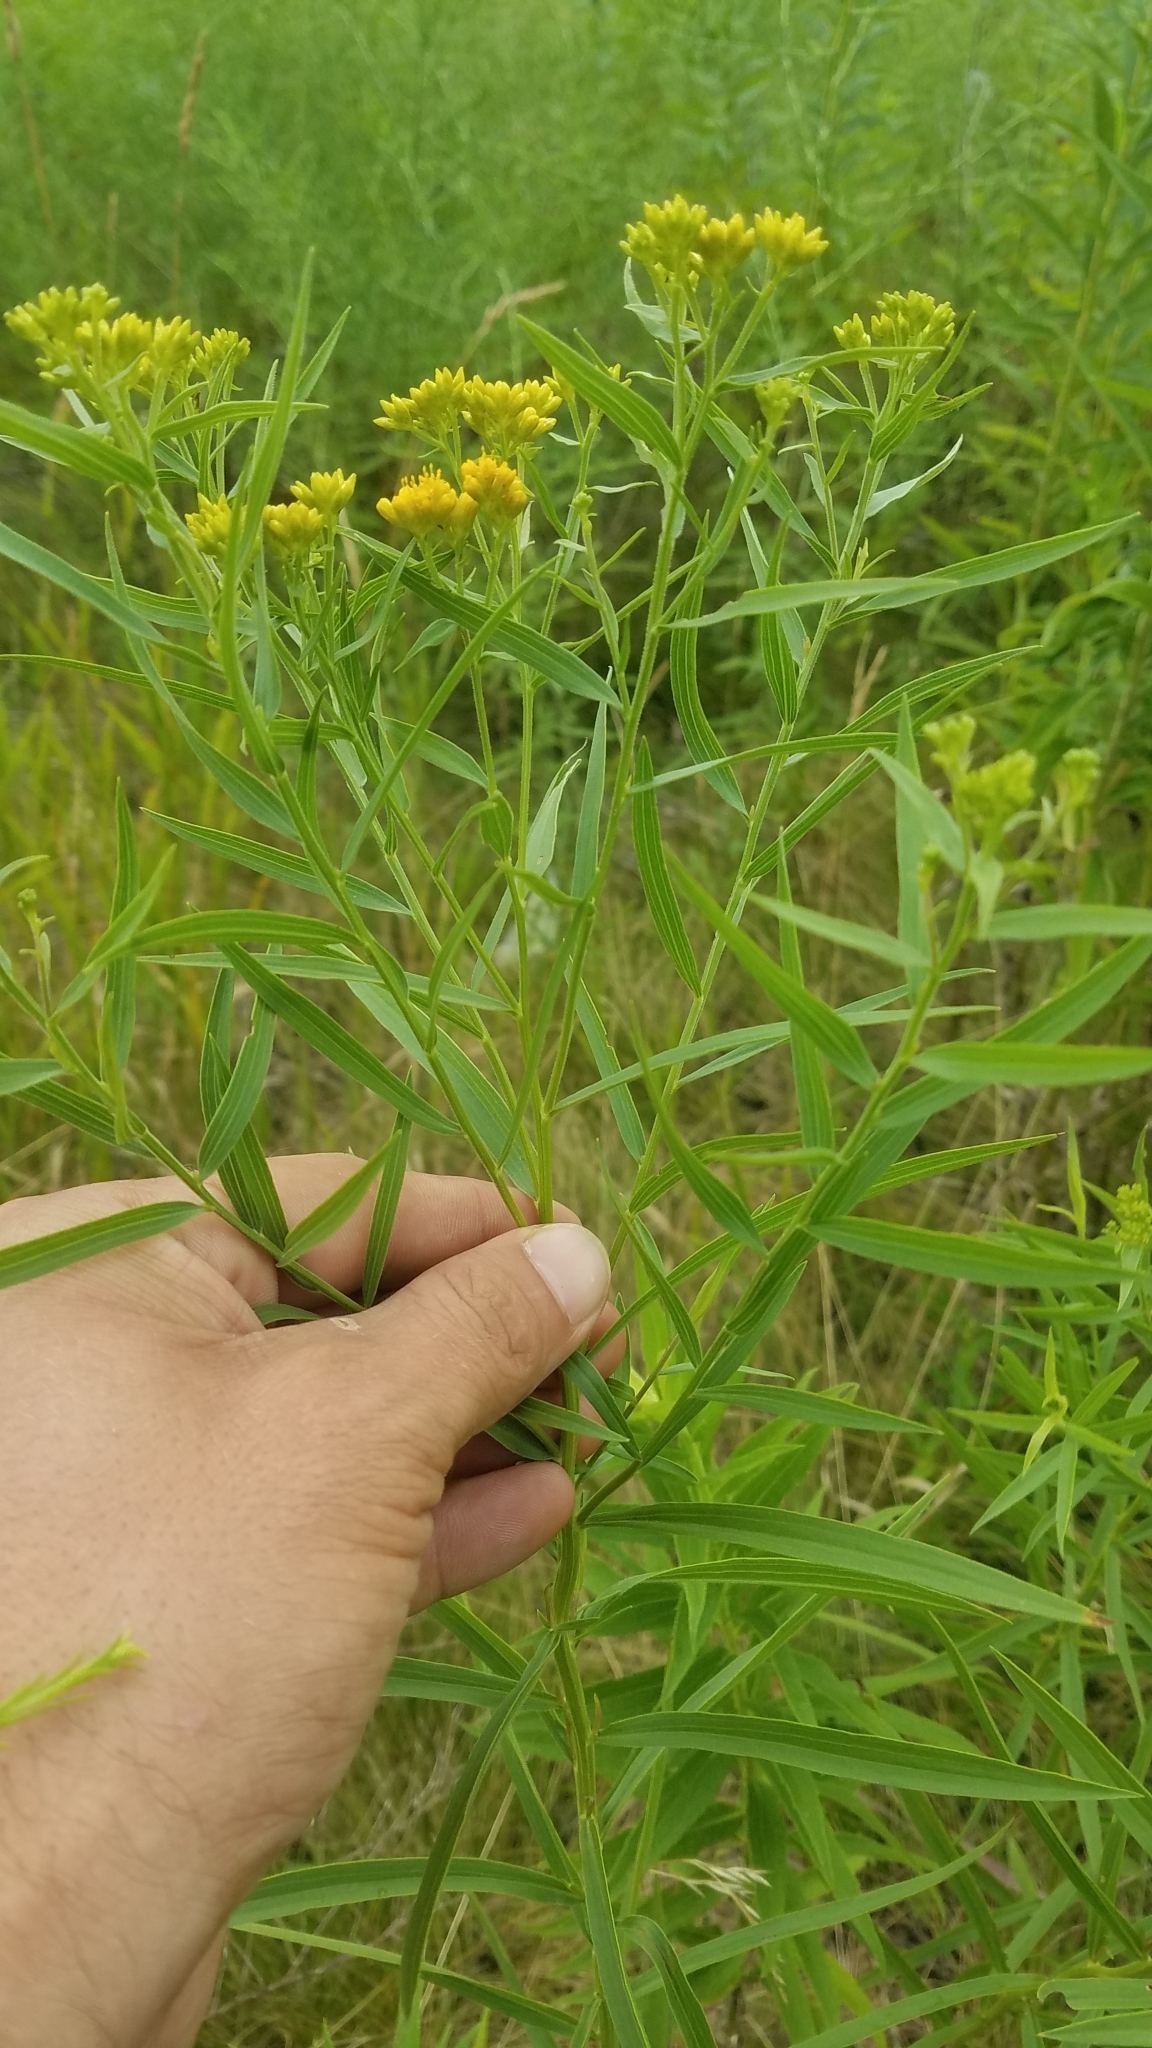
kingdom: Plantae
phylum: Tracheophyta
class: Magnoliopsida
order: Asterales
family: Asteraceae
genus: Euthamia
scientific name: Euthamia graminifolia
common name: Common goldentop
